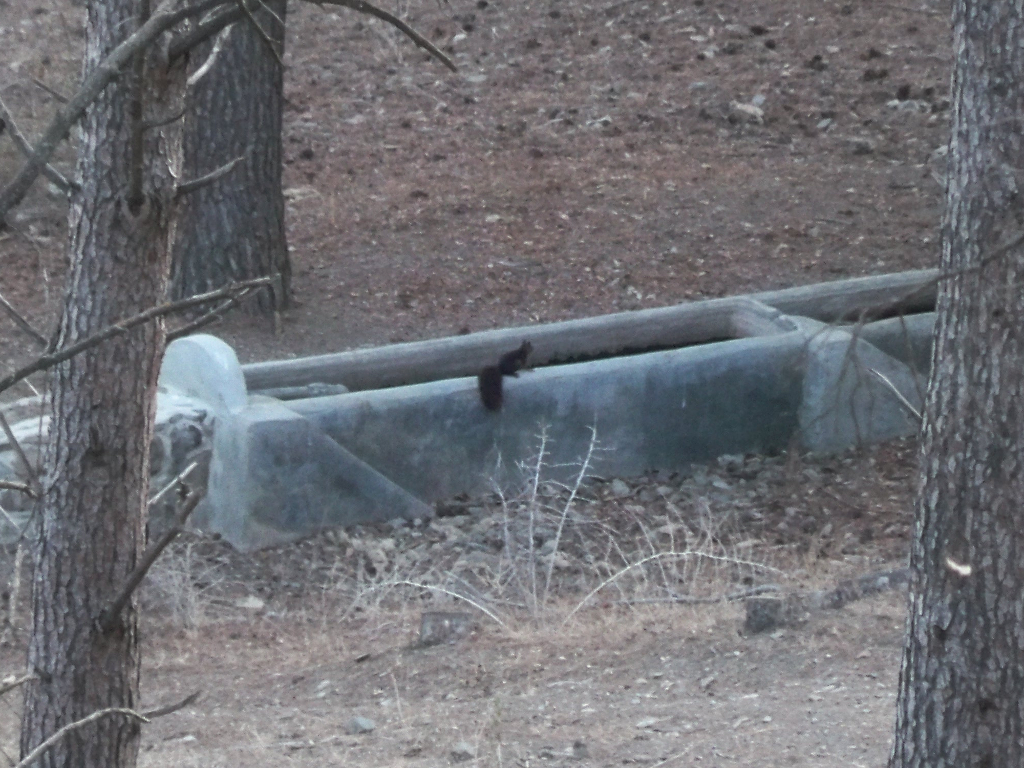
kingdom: Animalia
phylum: Chordata
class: Mammalia
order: Rodentia
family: Sciuridae
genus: Sciurus
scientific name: Sciurus vulgaris
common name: Eurasian red squirrel
